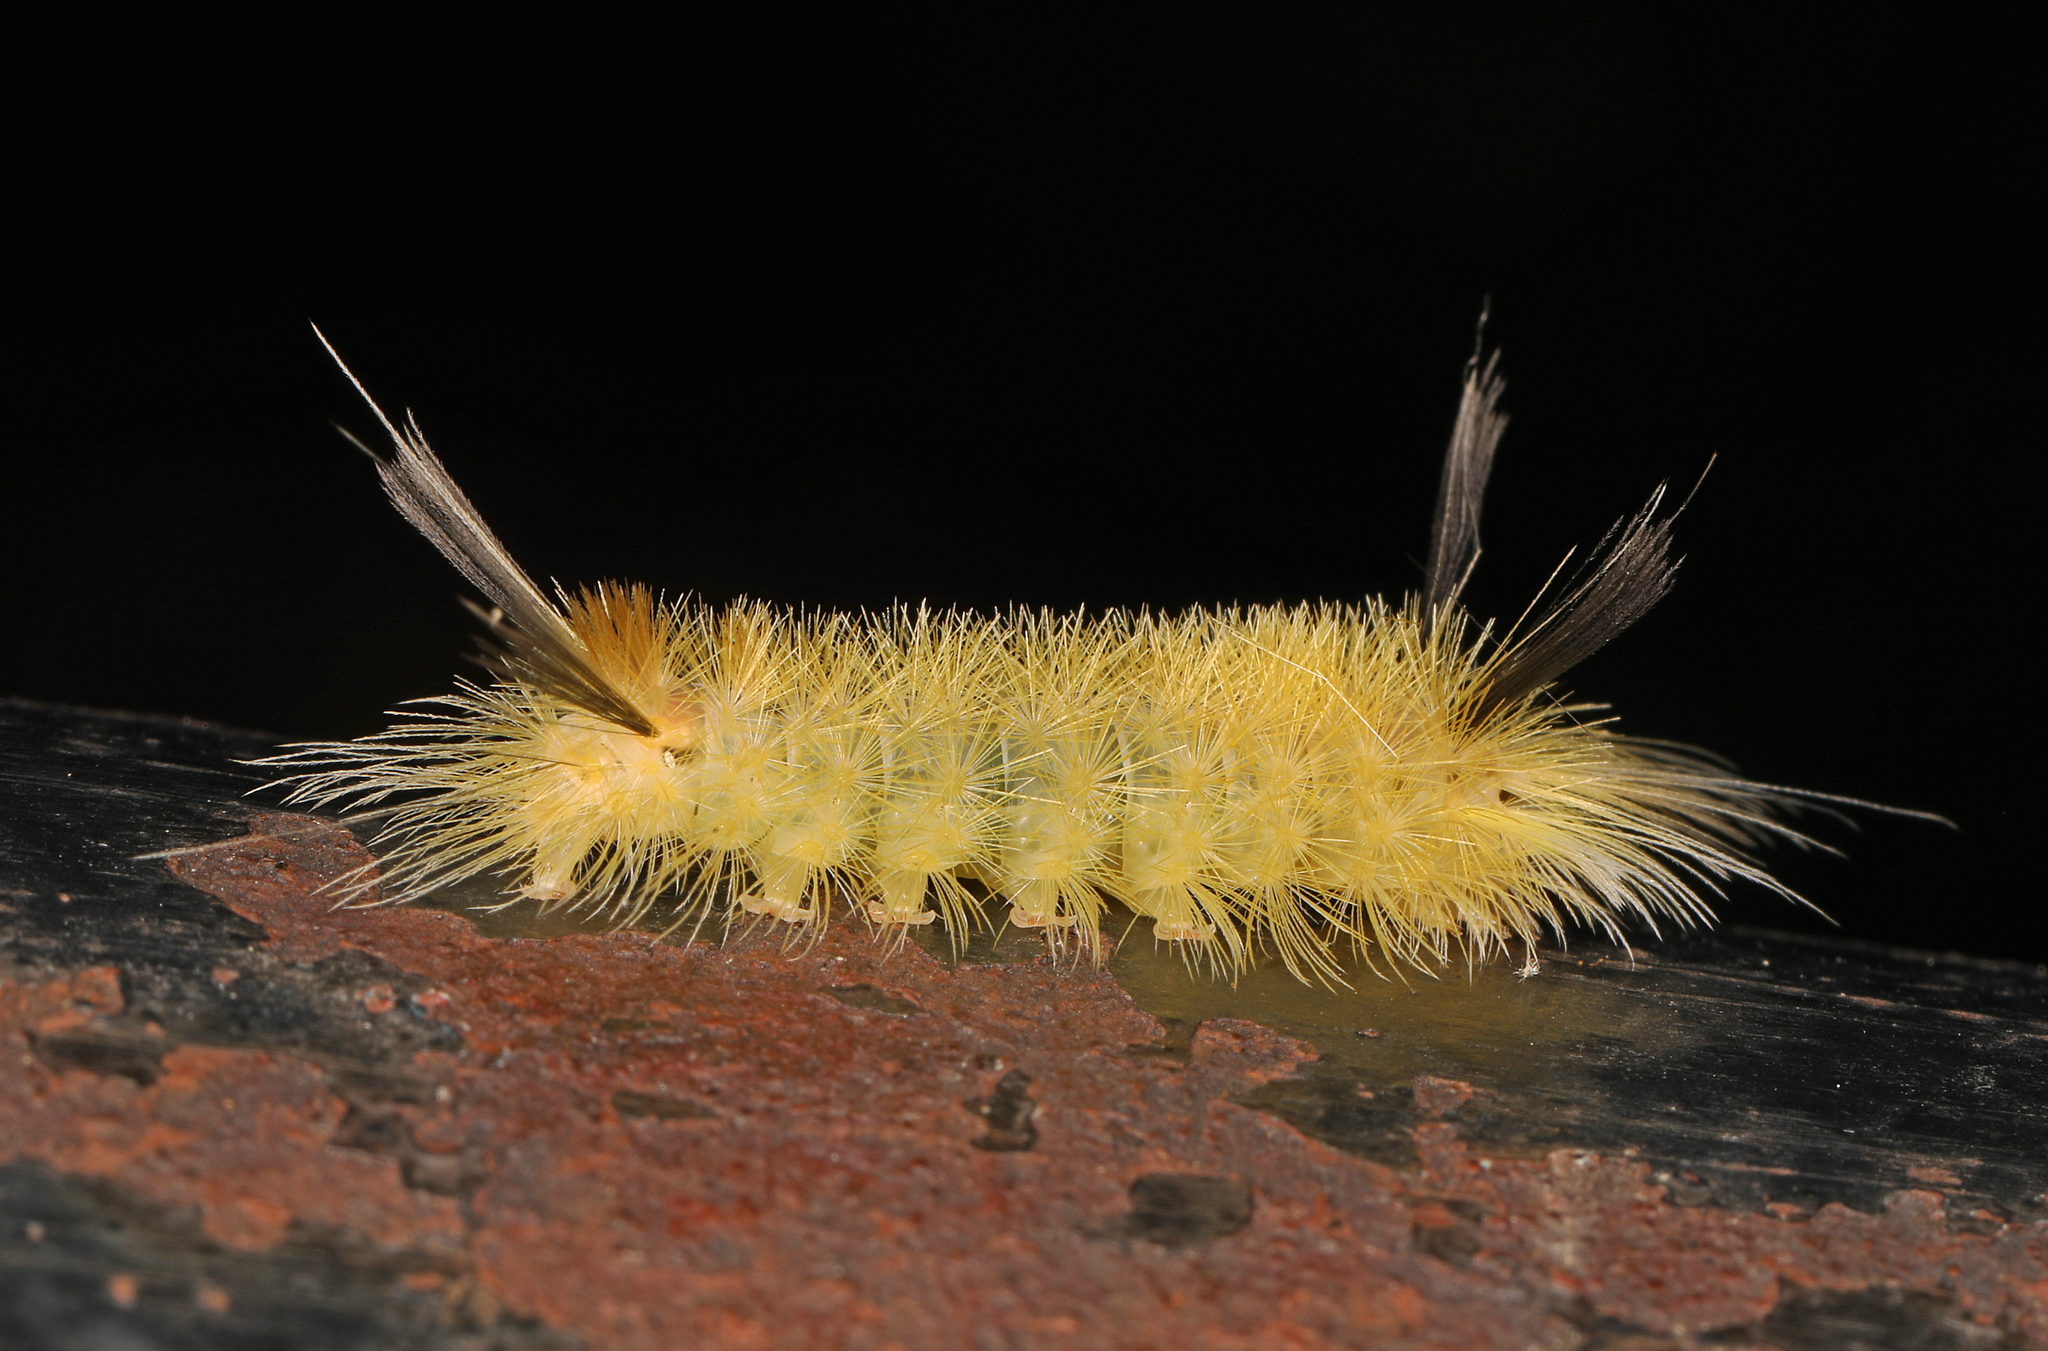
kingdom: Animalia
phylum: Arthropoda
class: Insecta
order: Lepidoptera
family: Erebidae
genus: Halysidota
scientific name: Halysidota tessellaris
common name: Banded tussock moth
